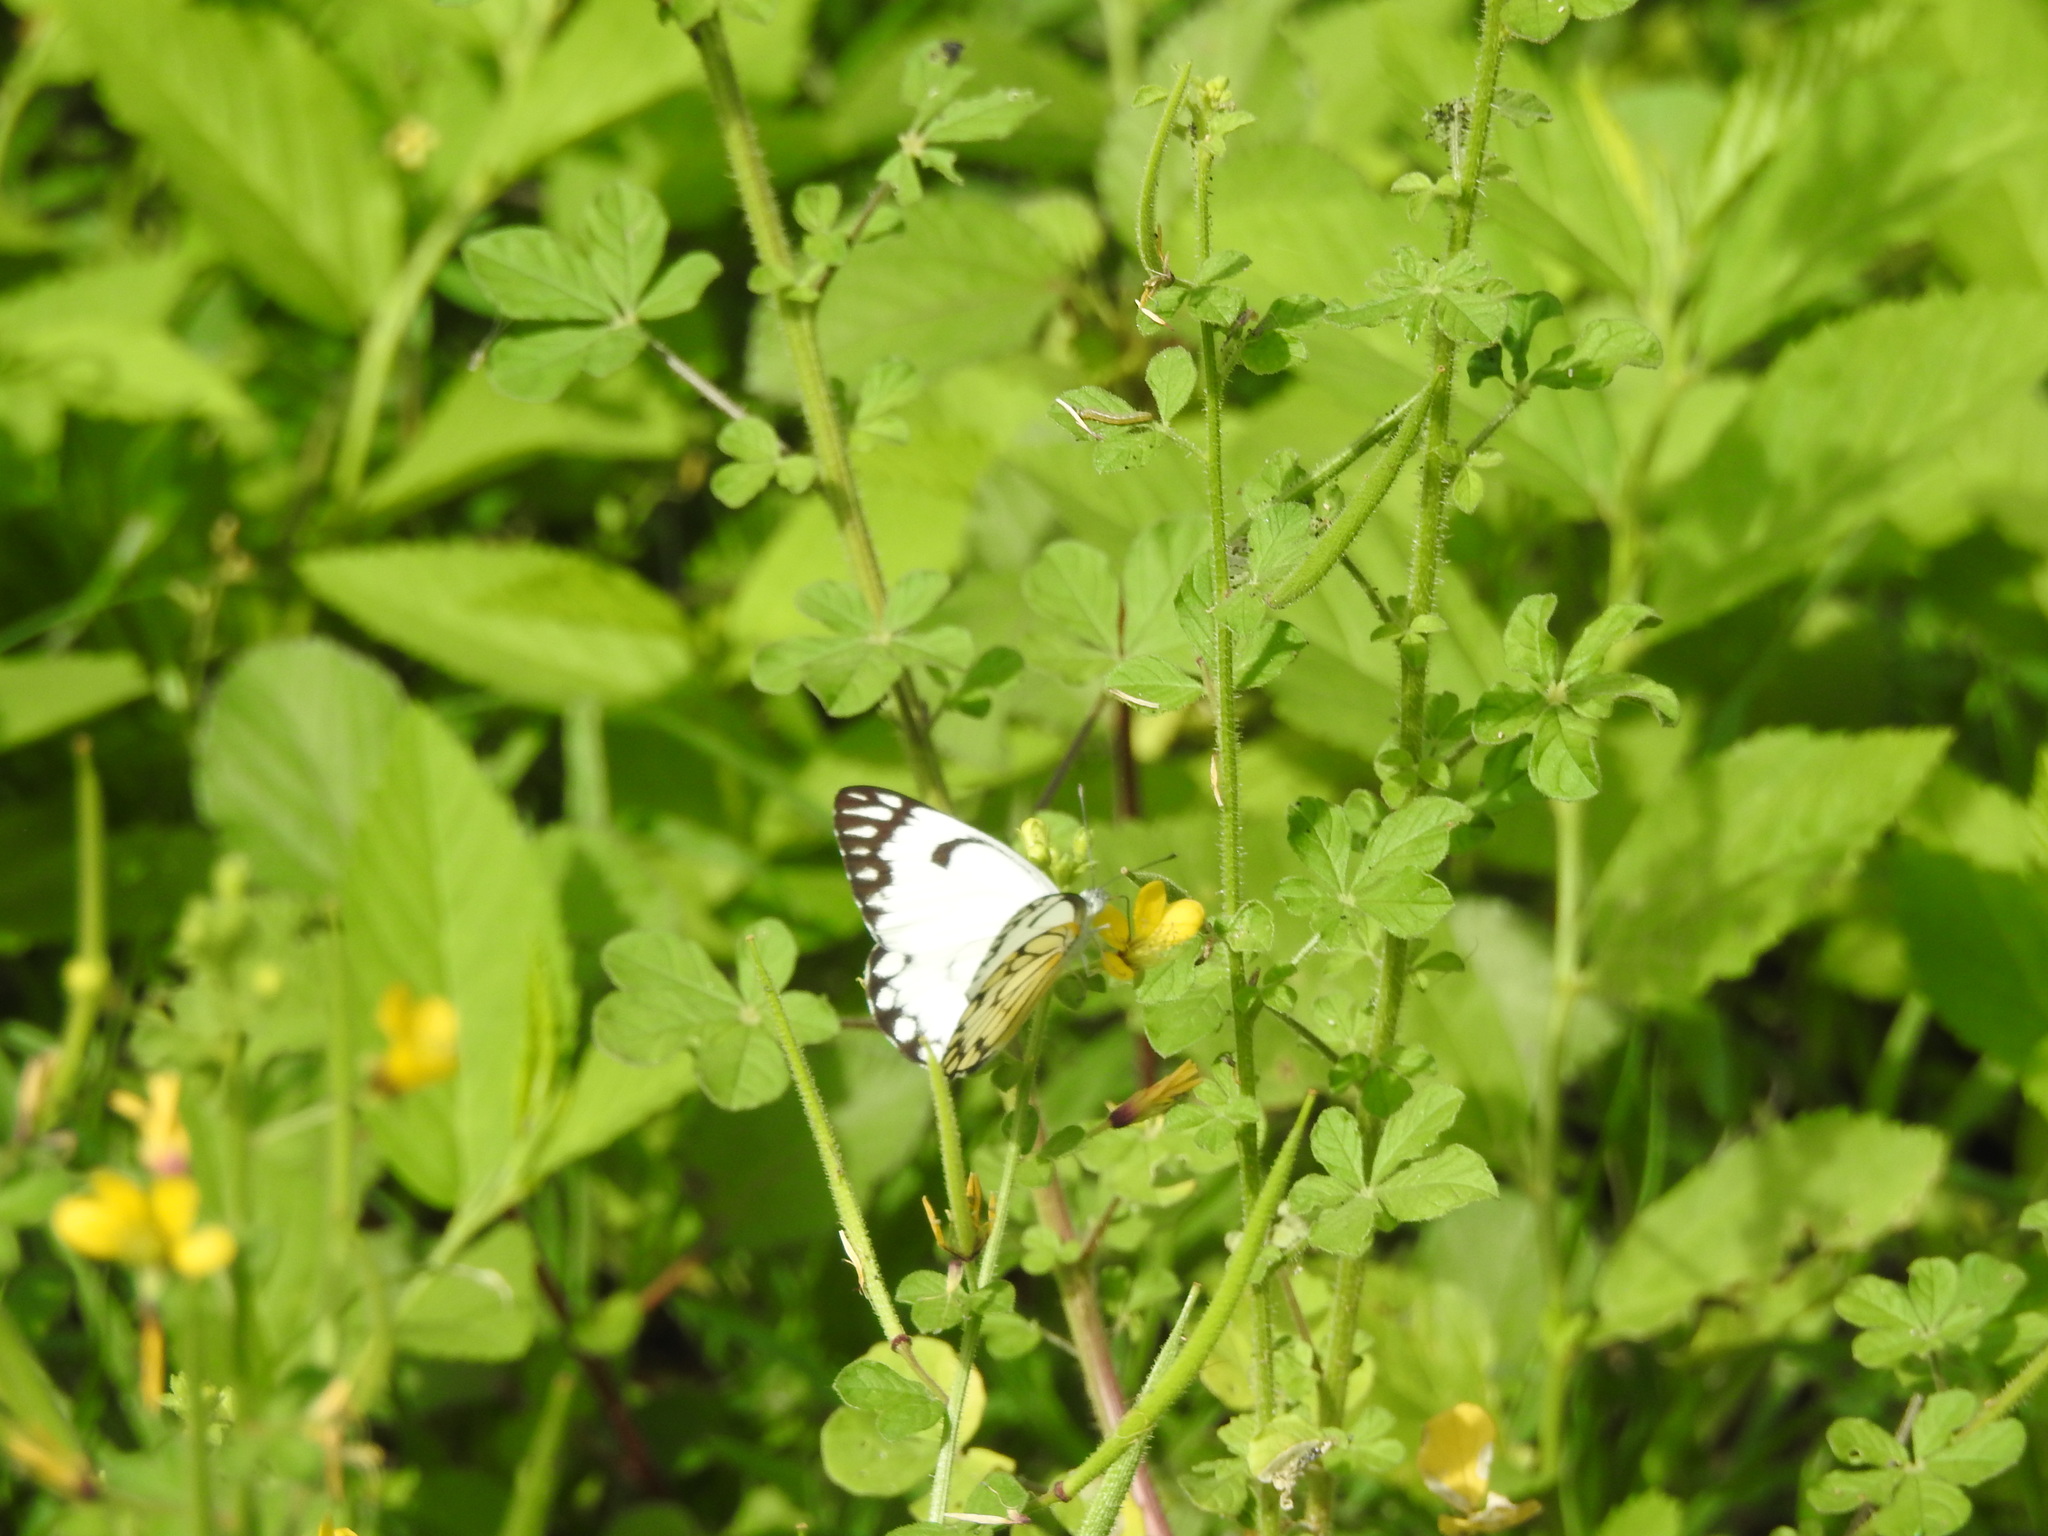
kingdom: Animalia
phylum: Arthropoda
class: Insecta
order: Lepidoptera
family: Pieridae
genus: Belenois
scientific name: Belenois aurota
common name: Brown-veined white
